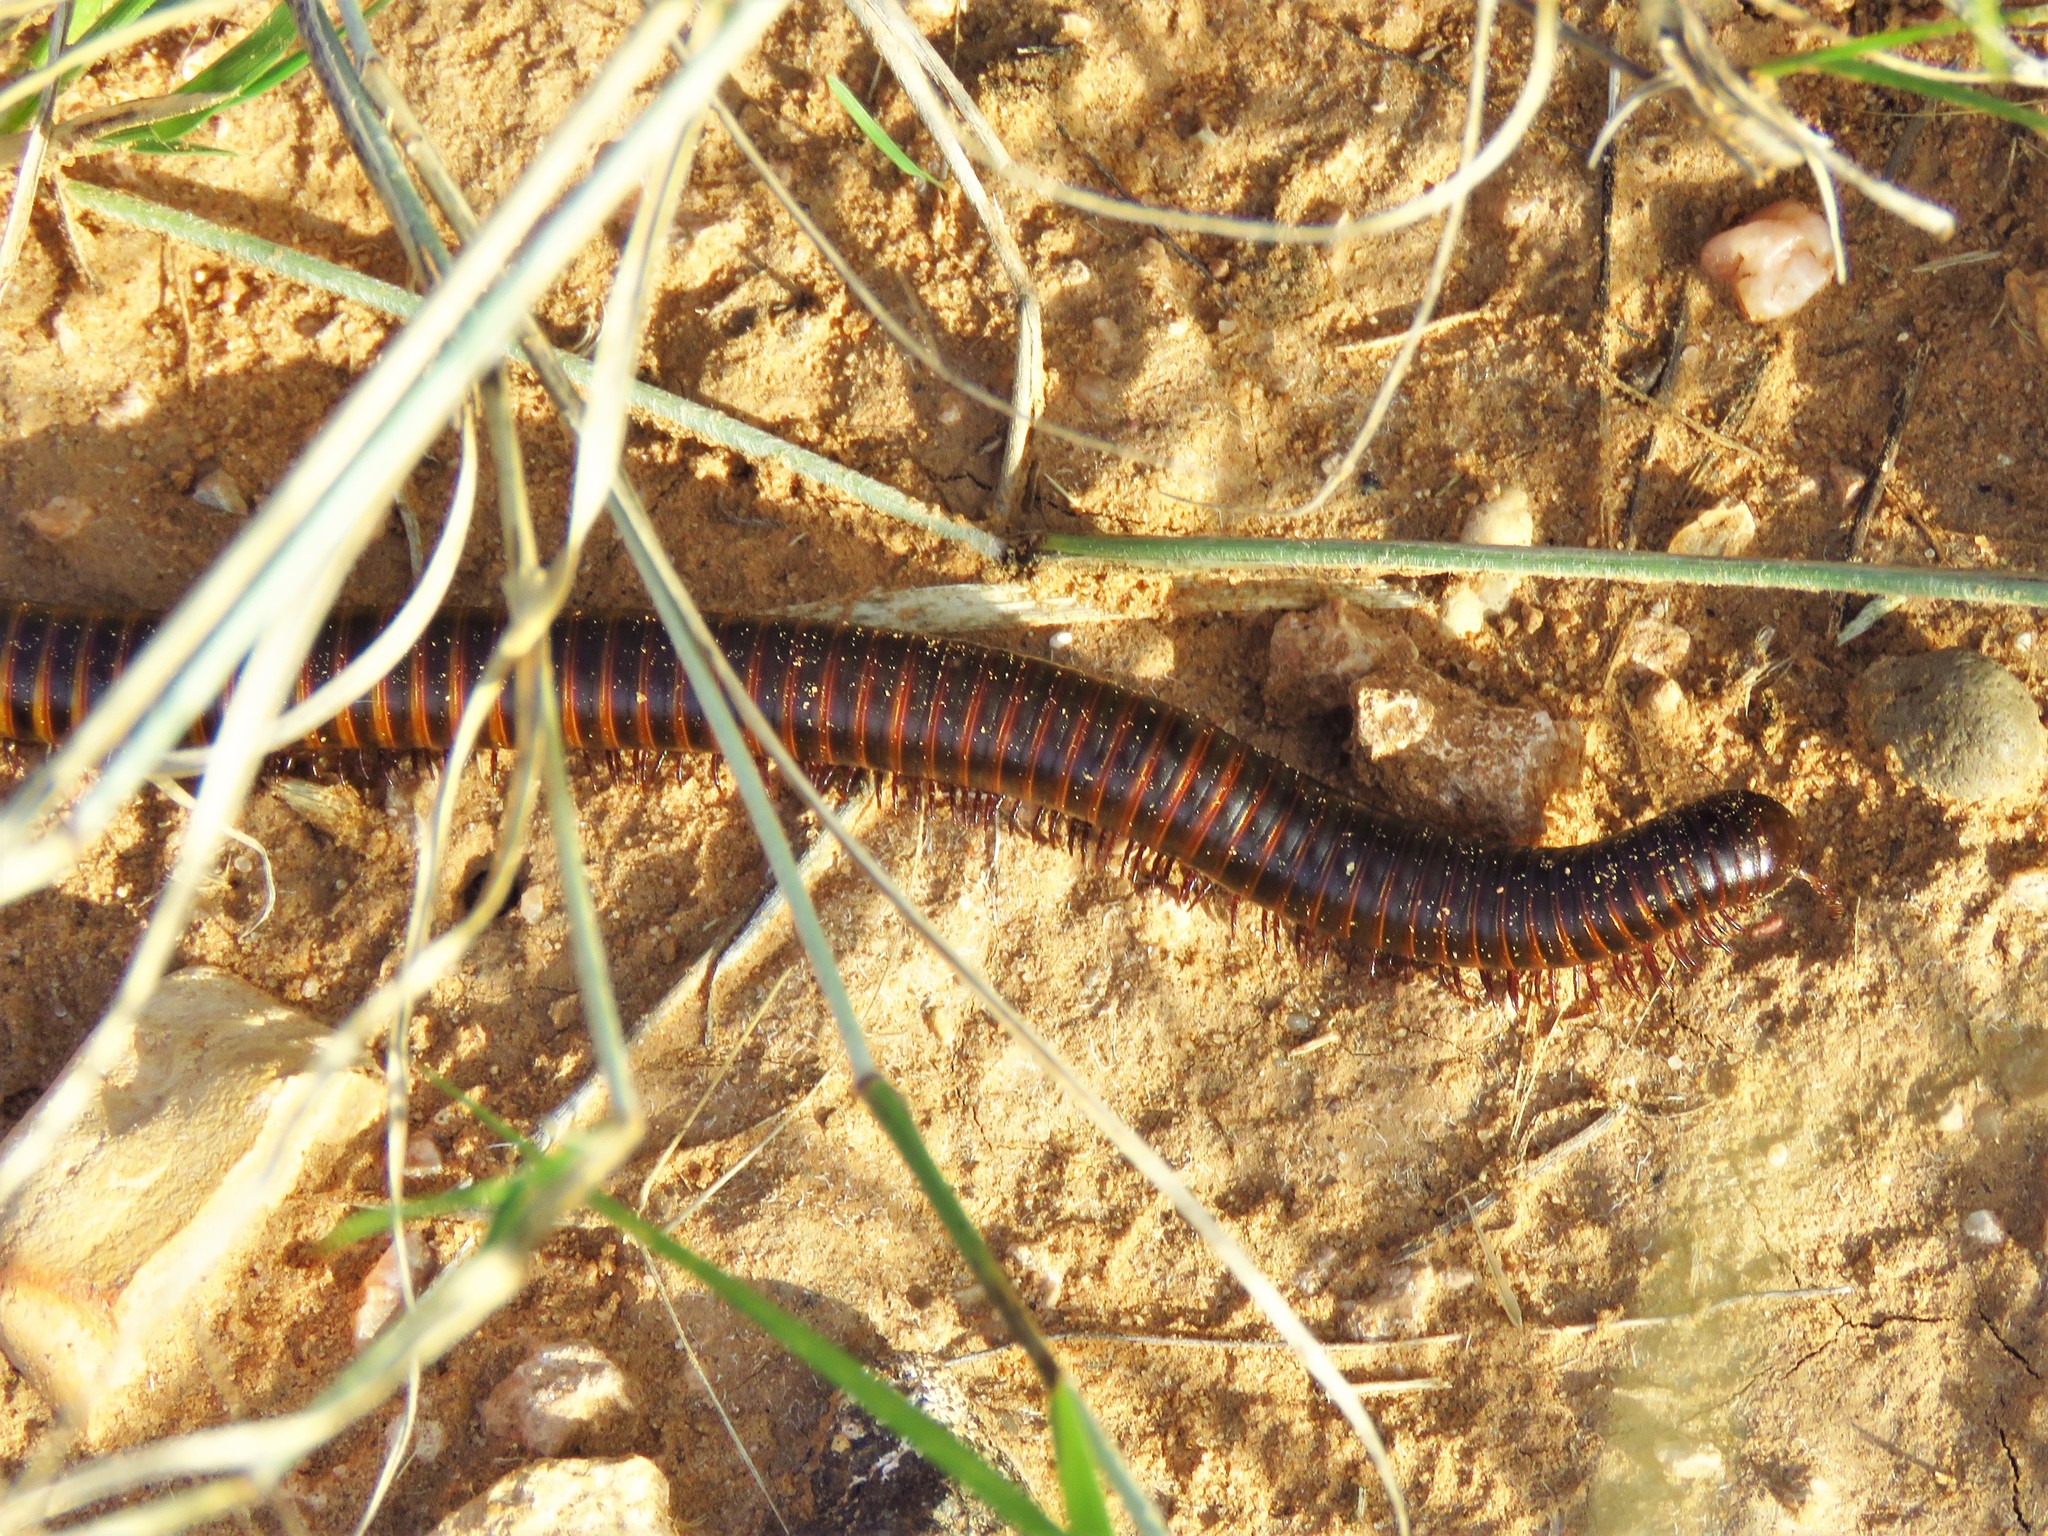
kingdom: Animalia
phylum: Arthropoda
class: Diplopoda
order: Spirostreptida
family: Spirostreptidae
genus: Orthoporus
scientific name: Orthoporus ornatus
